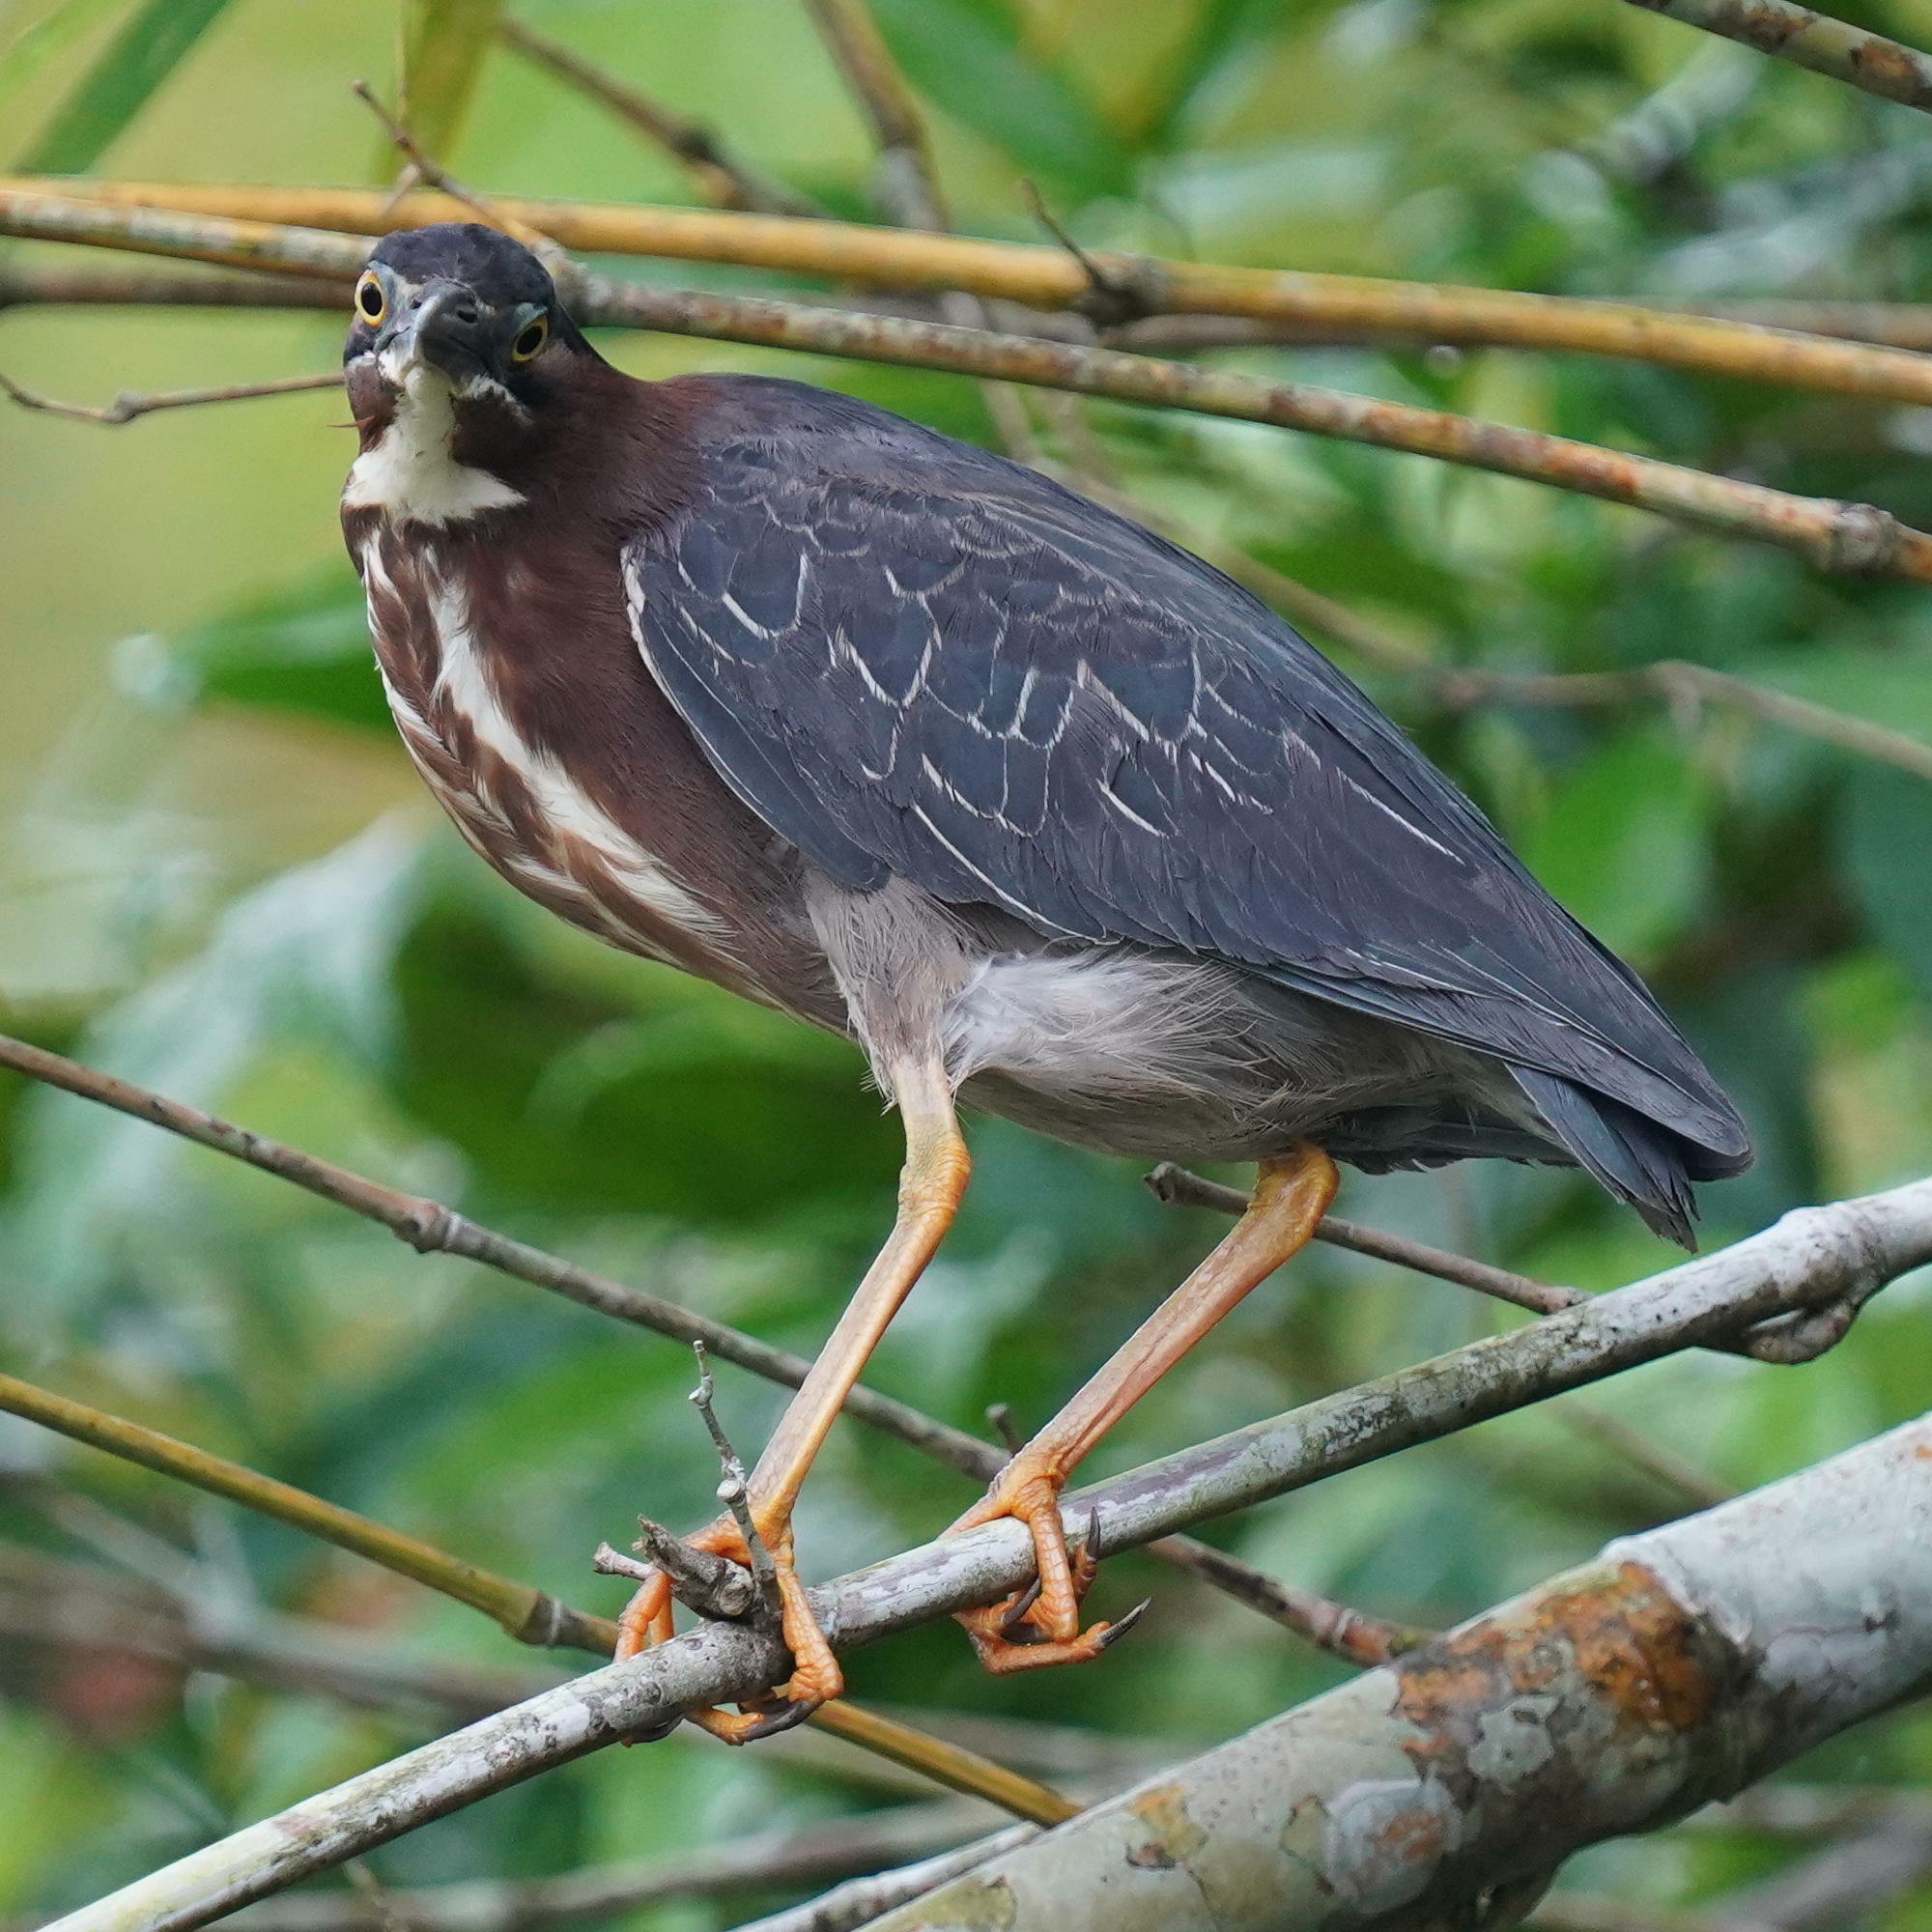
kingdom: Animalia
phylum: Chordata
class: Aves
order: Pelecaniformes
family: Ardeidae
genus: Butorides
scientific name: Butorides virescens
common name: Green heron
